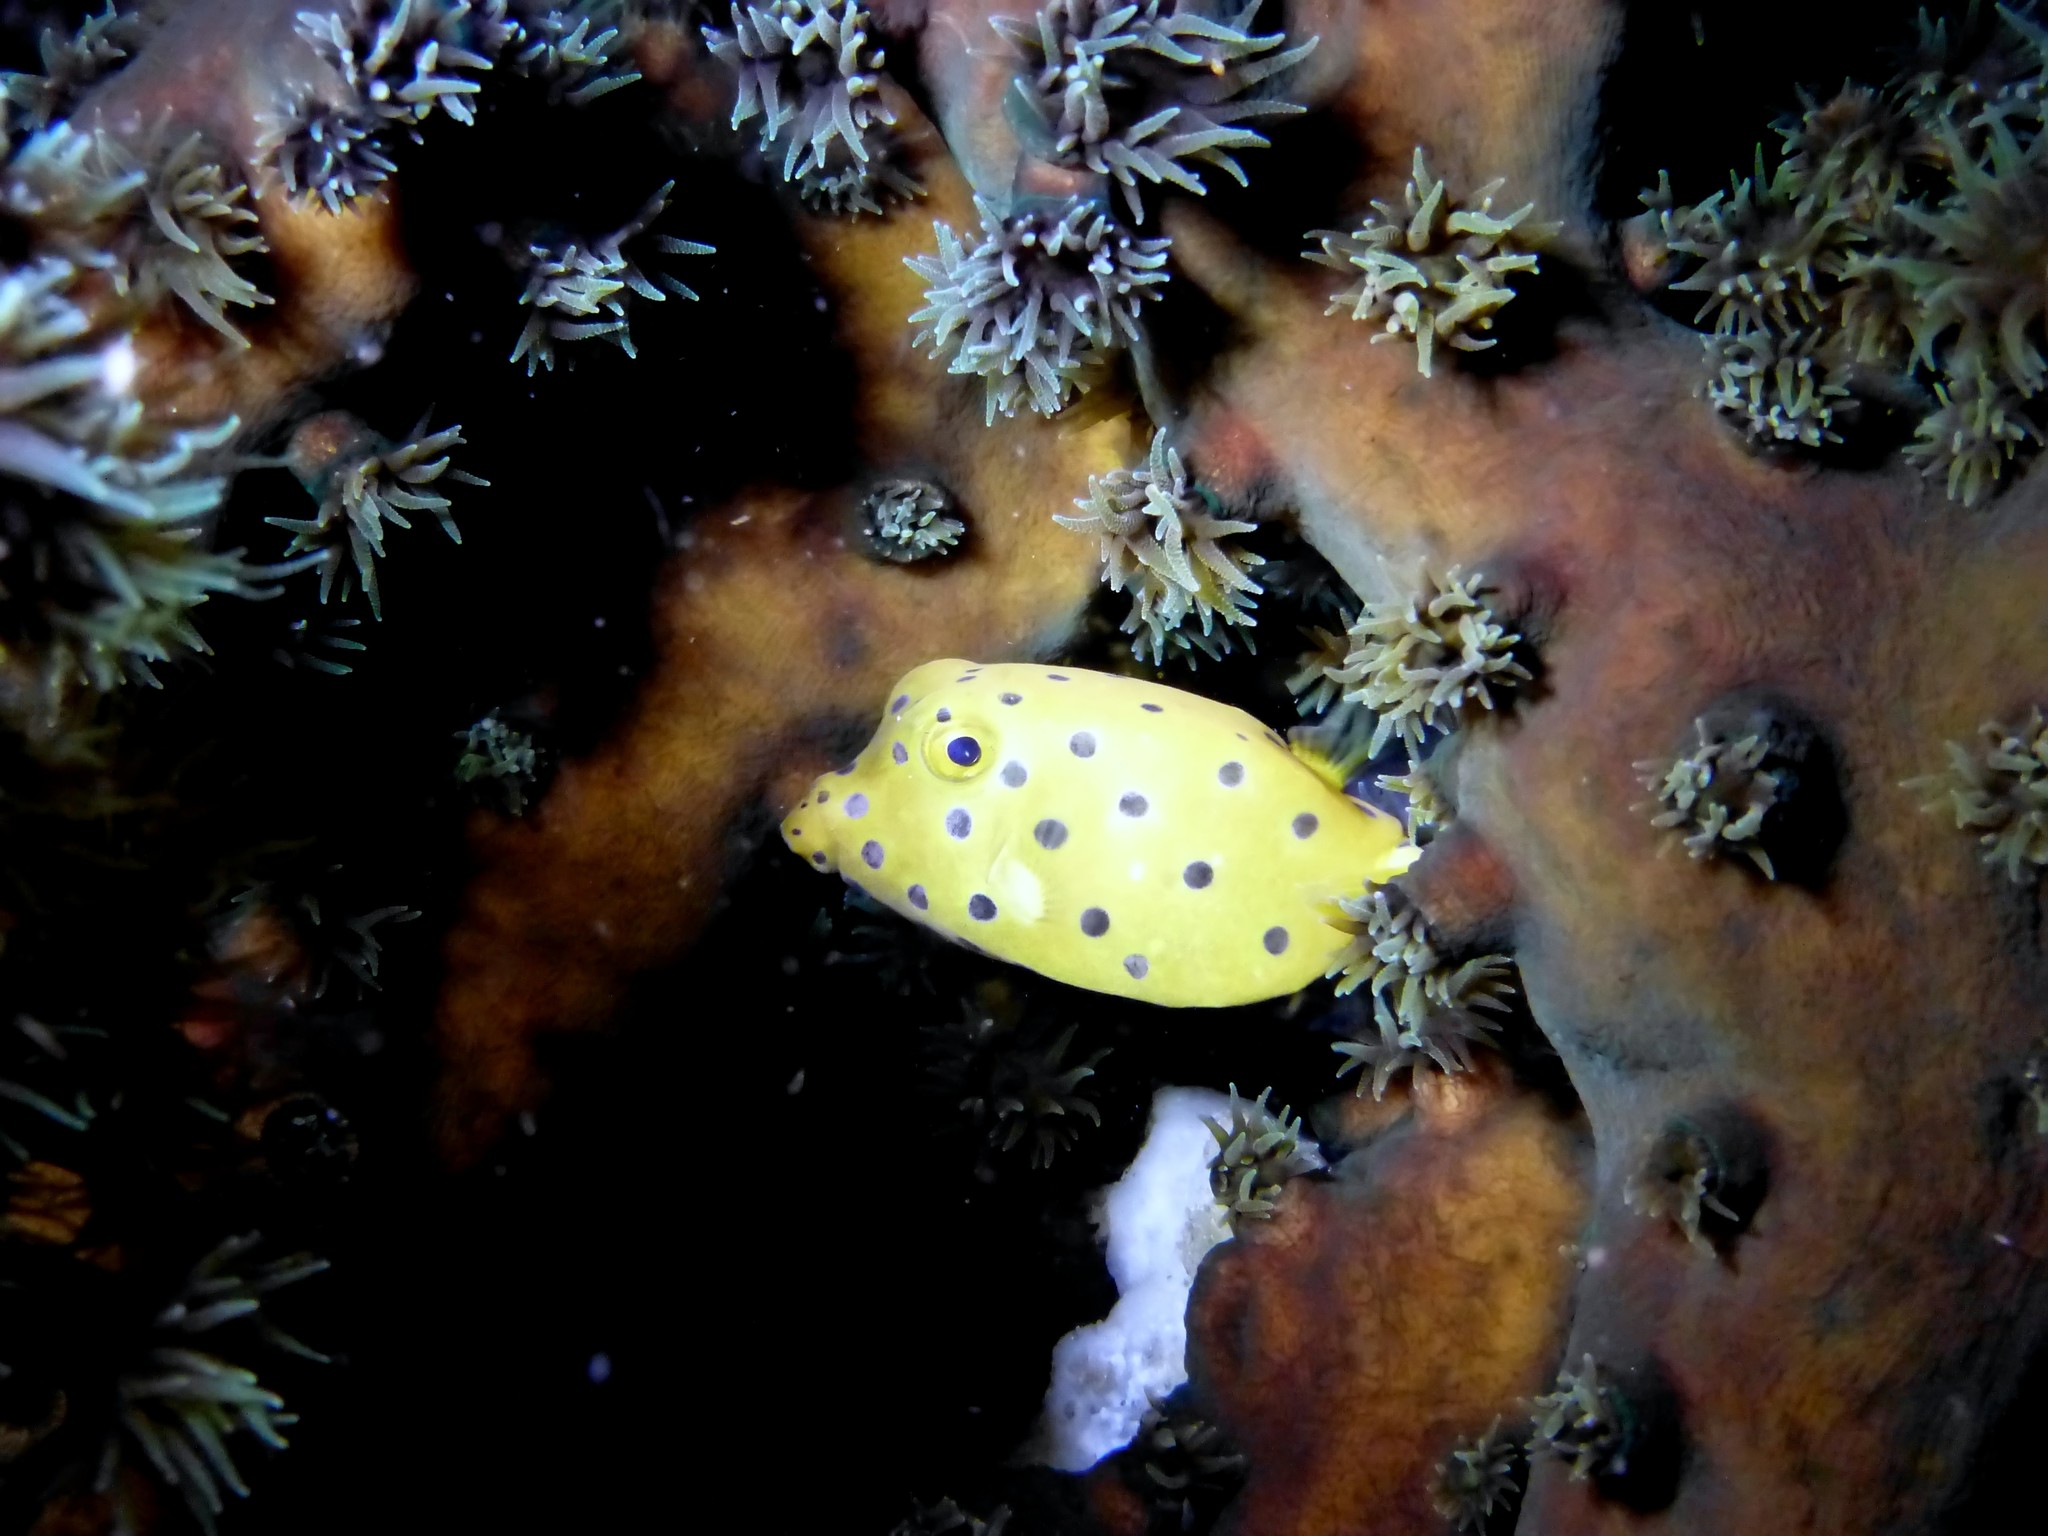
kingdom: Animalia
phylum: Chordata
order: Tetraodontiformes
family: Ostraciidae
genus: Ostracion
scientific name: Ostracion cubicus
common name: Cube trunkfish
